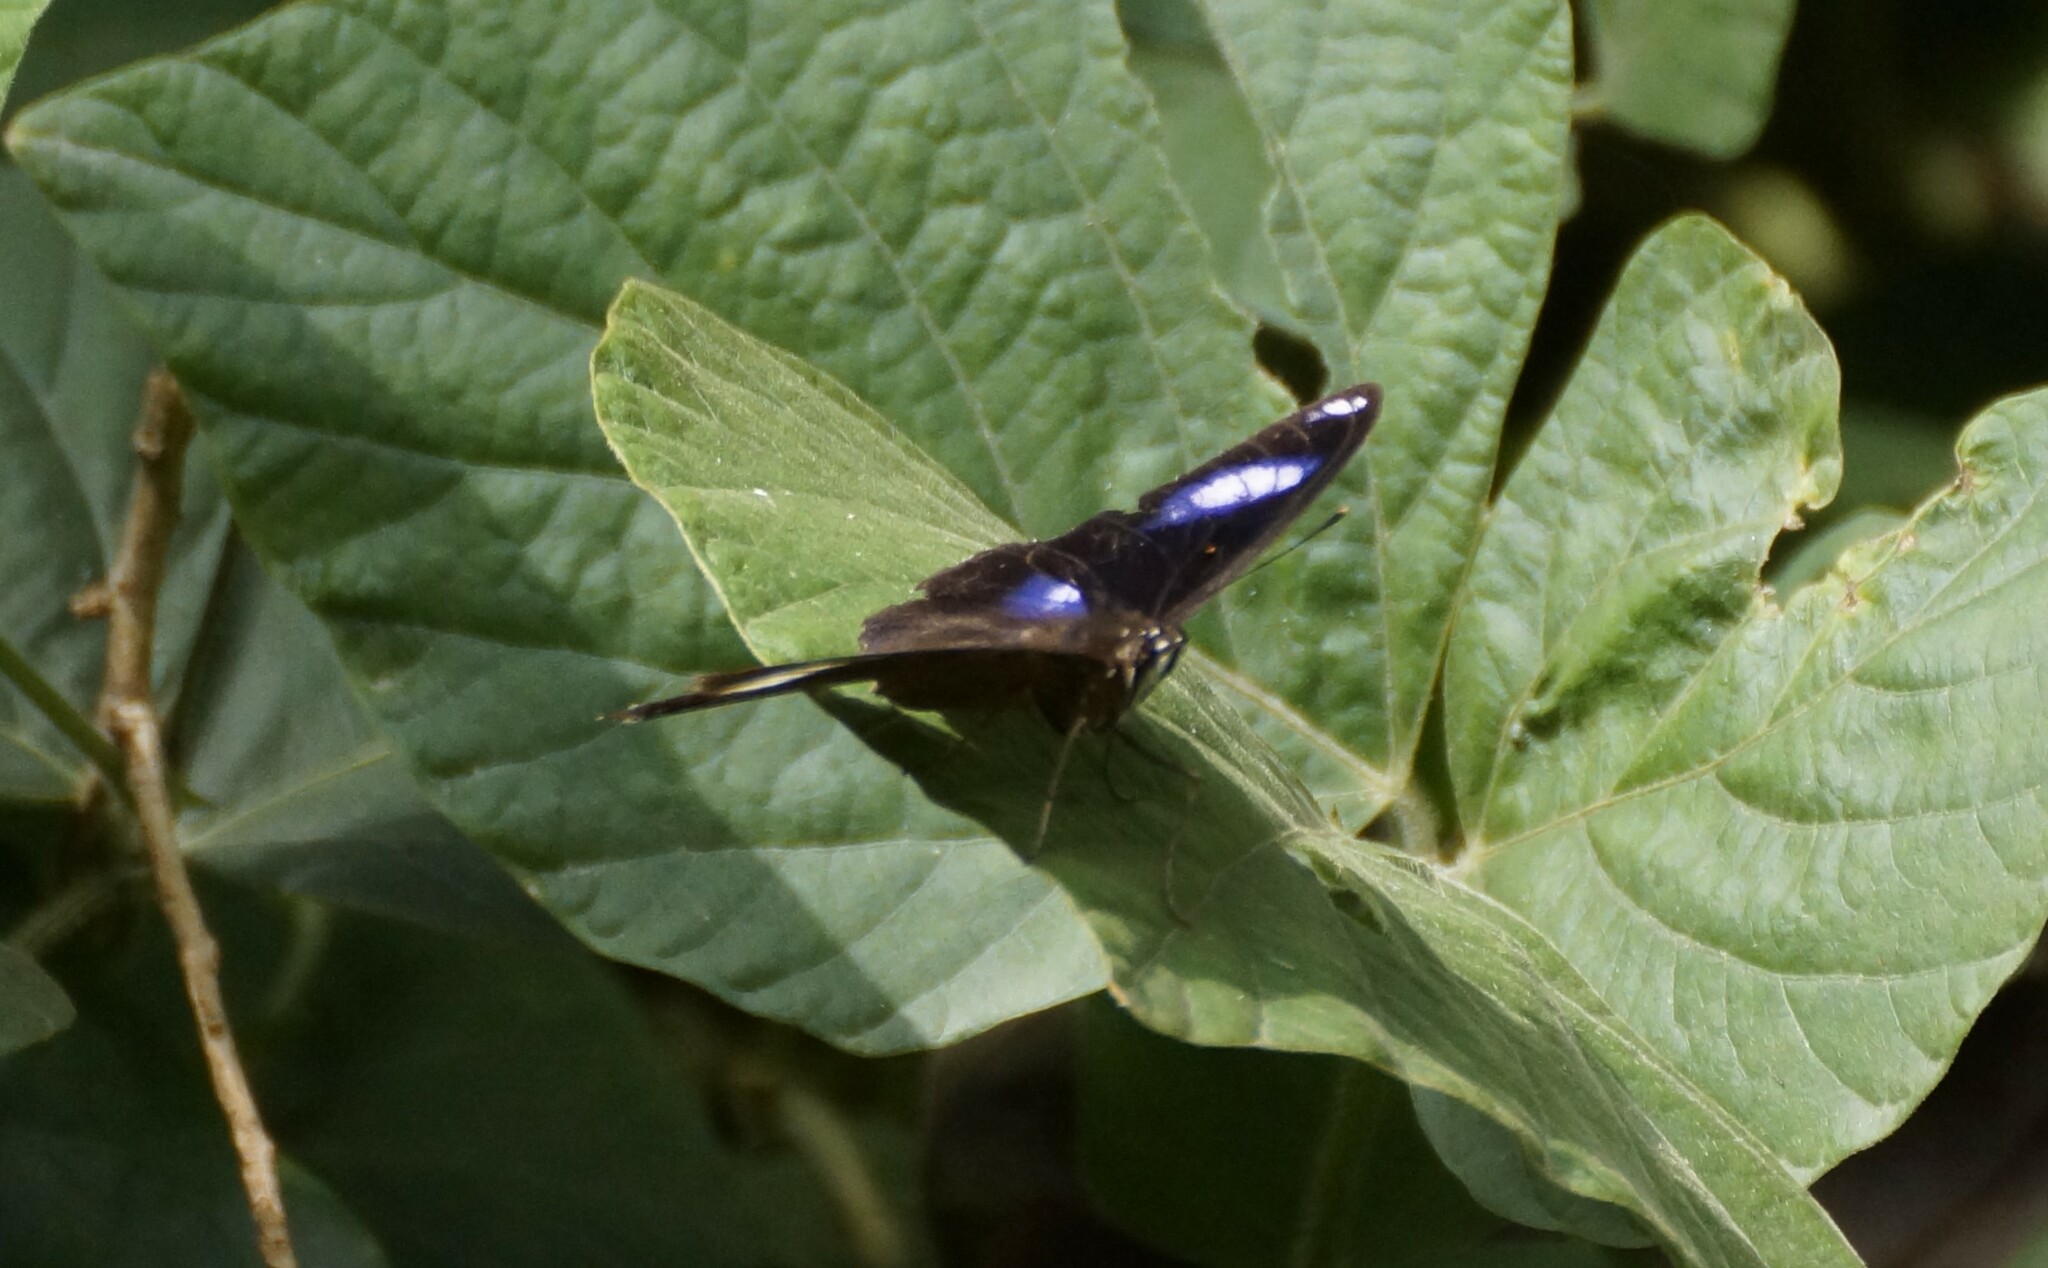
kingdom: Animalia
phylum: Arthropoda
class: Insecta
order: Lepidoptera
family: Nymphalidae
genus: Hypolimnas
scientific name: Hypolimnas bolina
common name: Great eggfly
